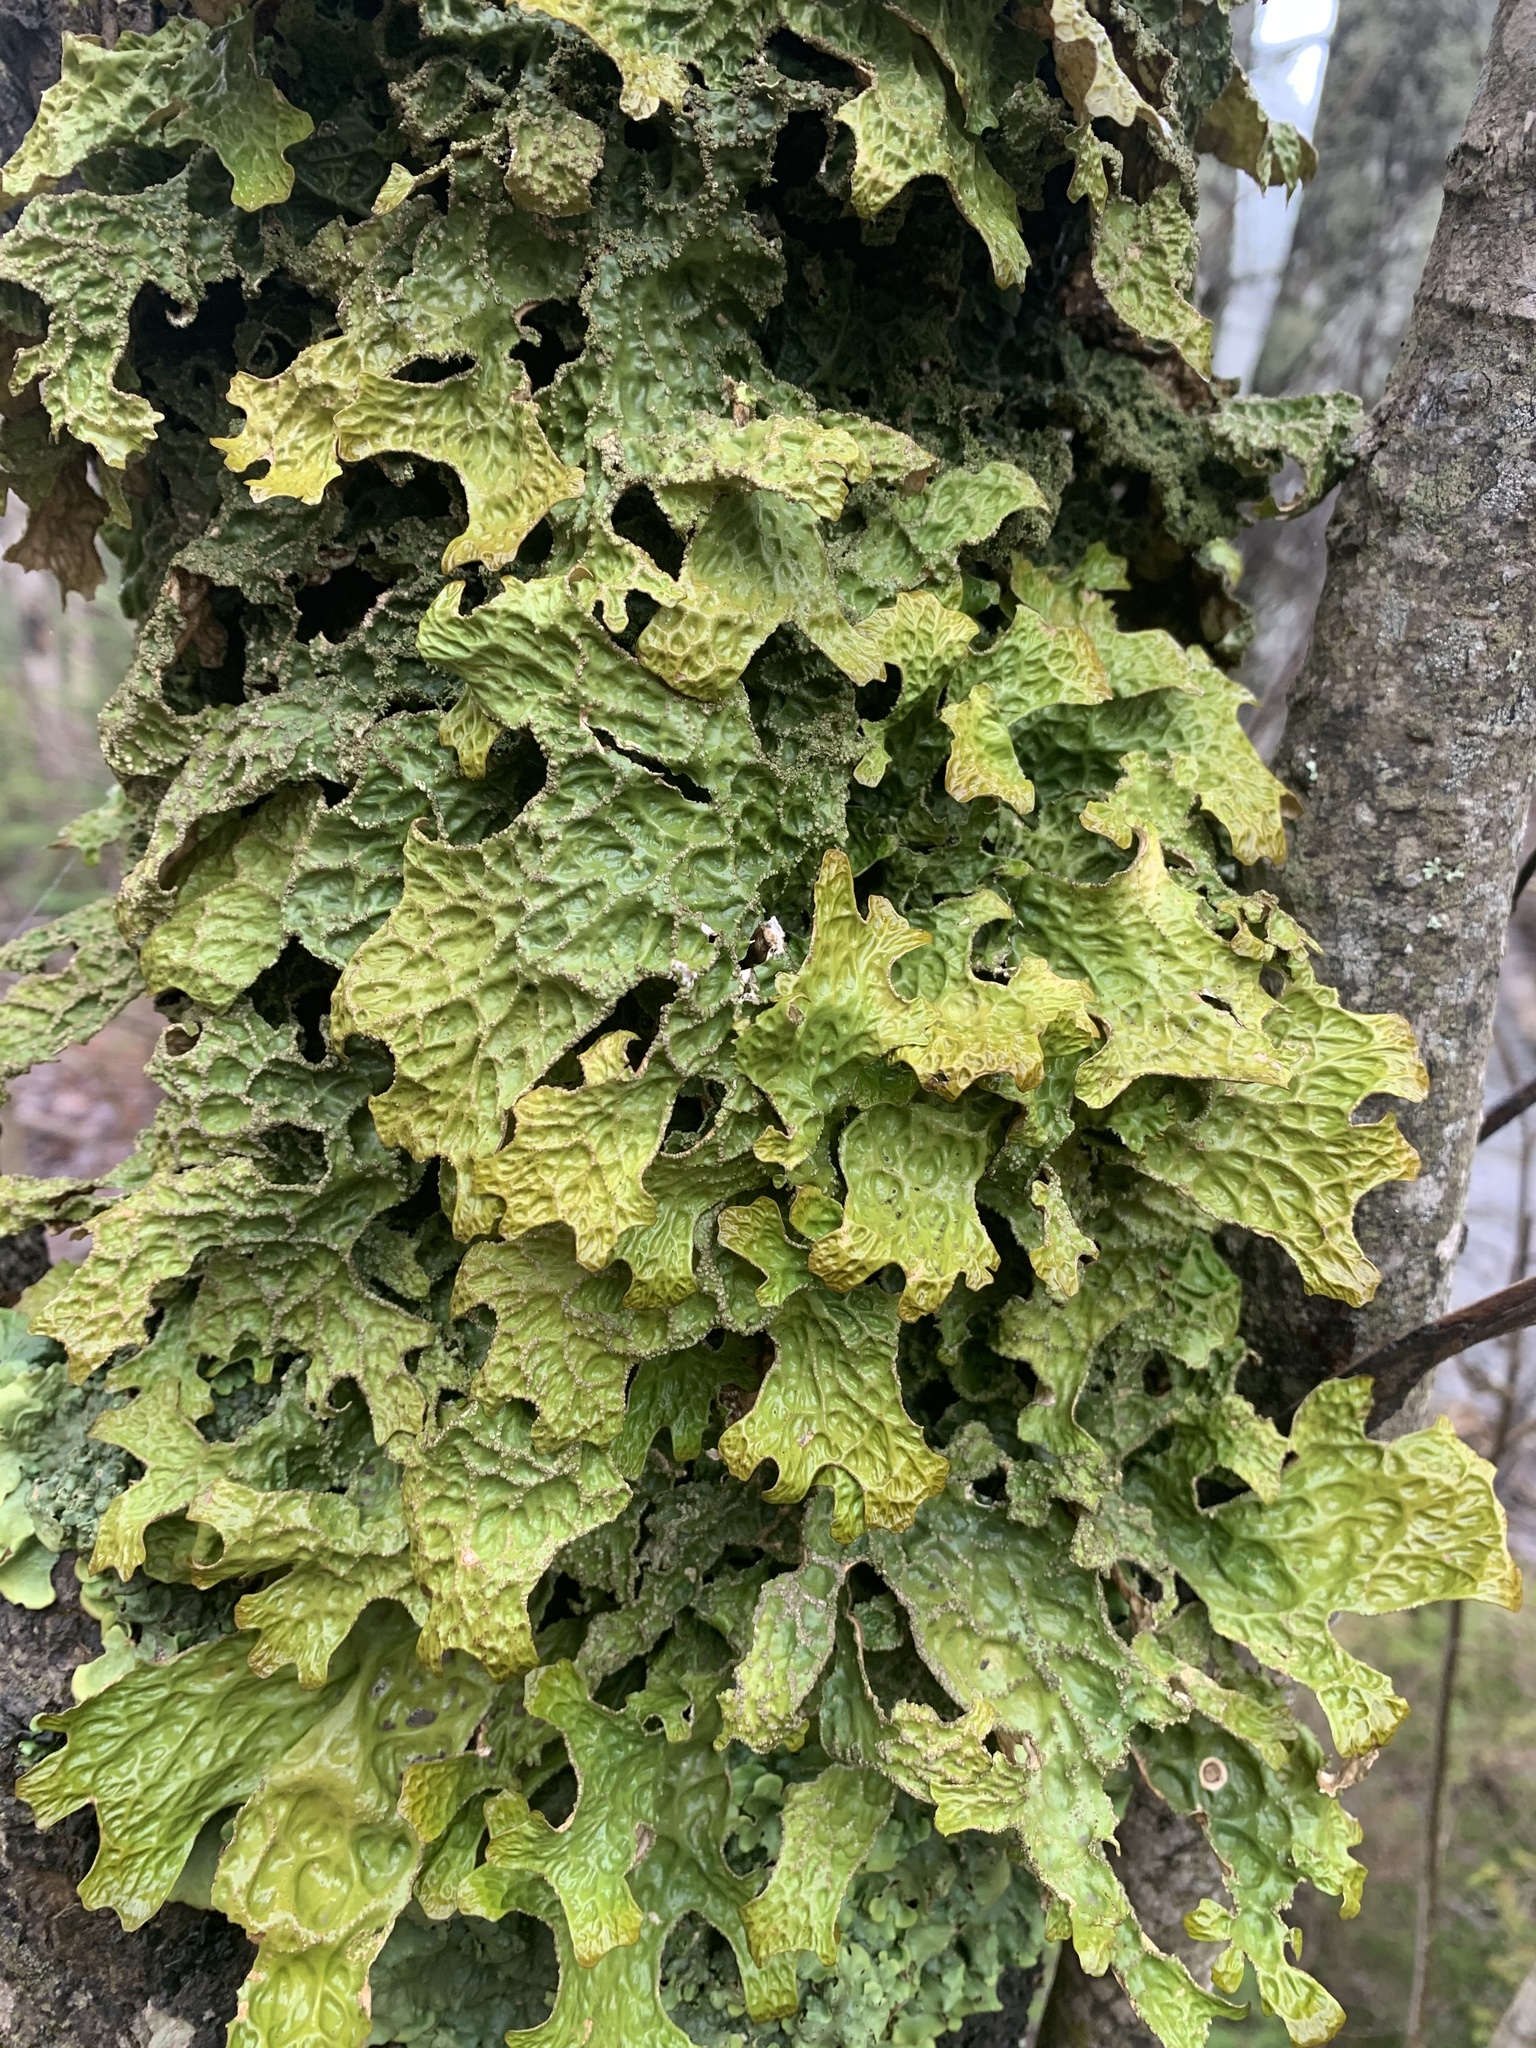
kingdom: Fungi
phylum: Ascomycota
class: Lecanoromycetes
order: Peltigerales
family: Lobariaceae
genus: Lobaria
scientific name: Lobaria pulmonaria
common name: Lungwort
